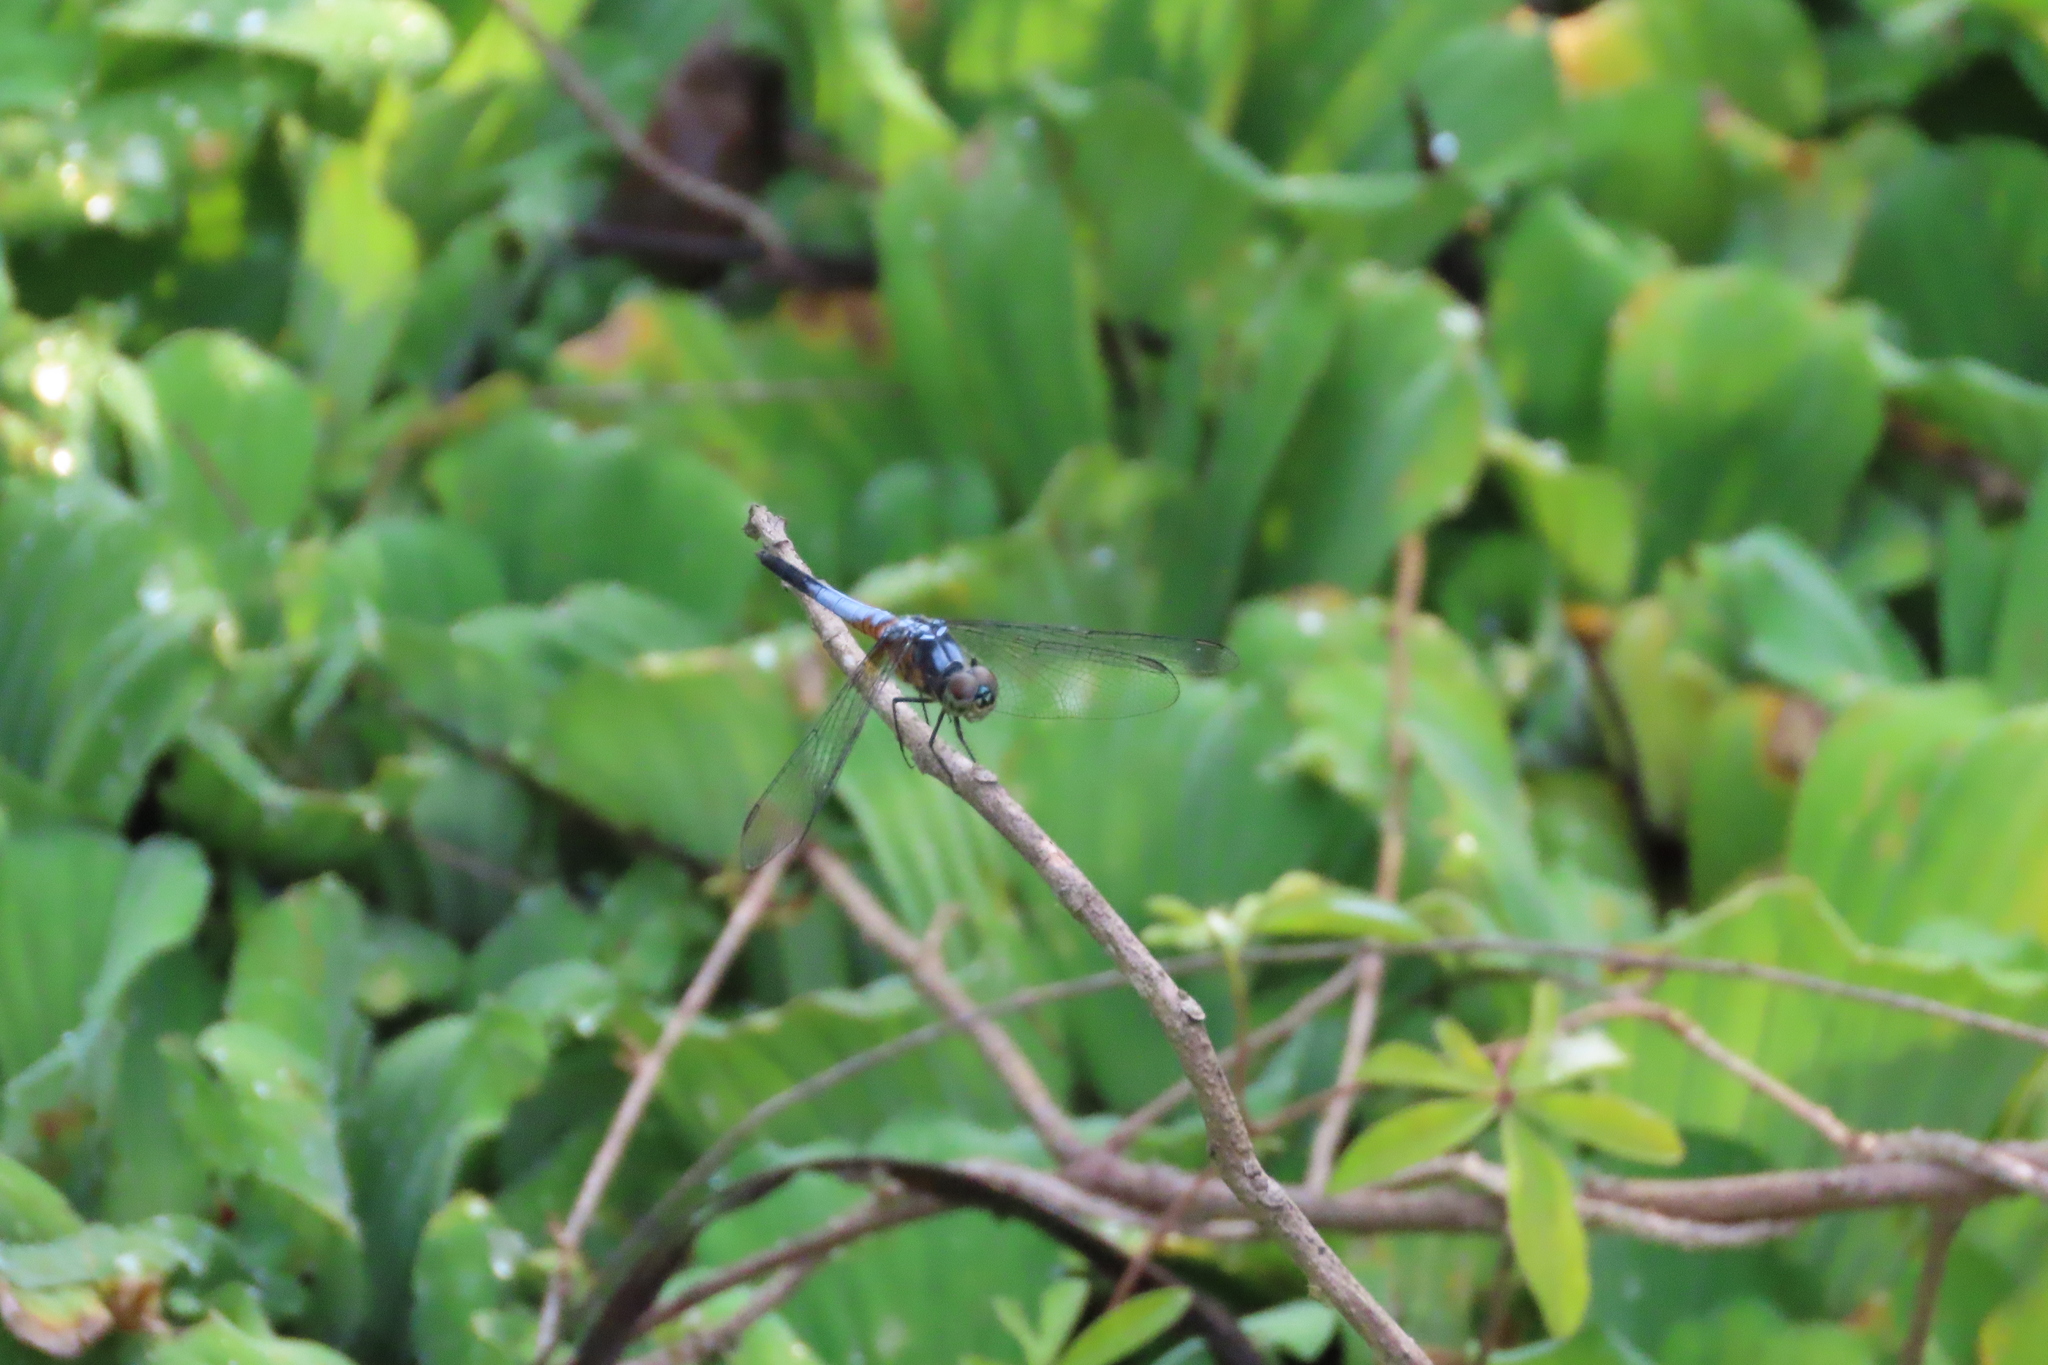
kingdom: Animalia
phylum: Arthropoda
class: Insecta
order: Odonata
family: Libellulidae
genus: Brachydiplax
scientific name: Brachydiplax chalybea
